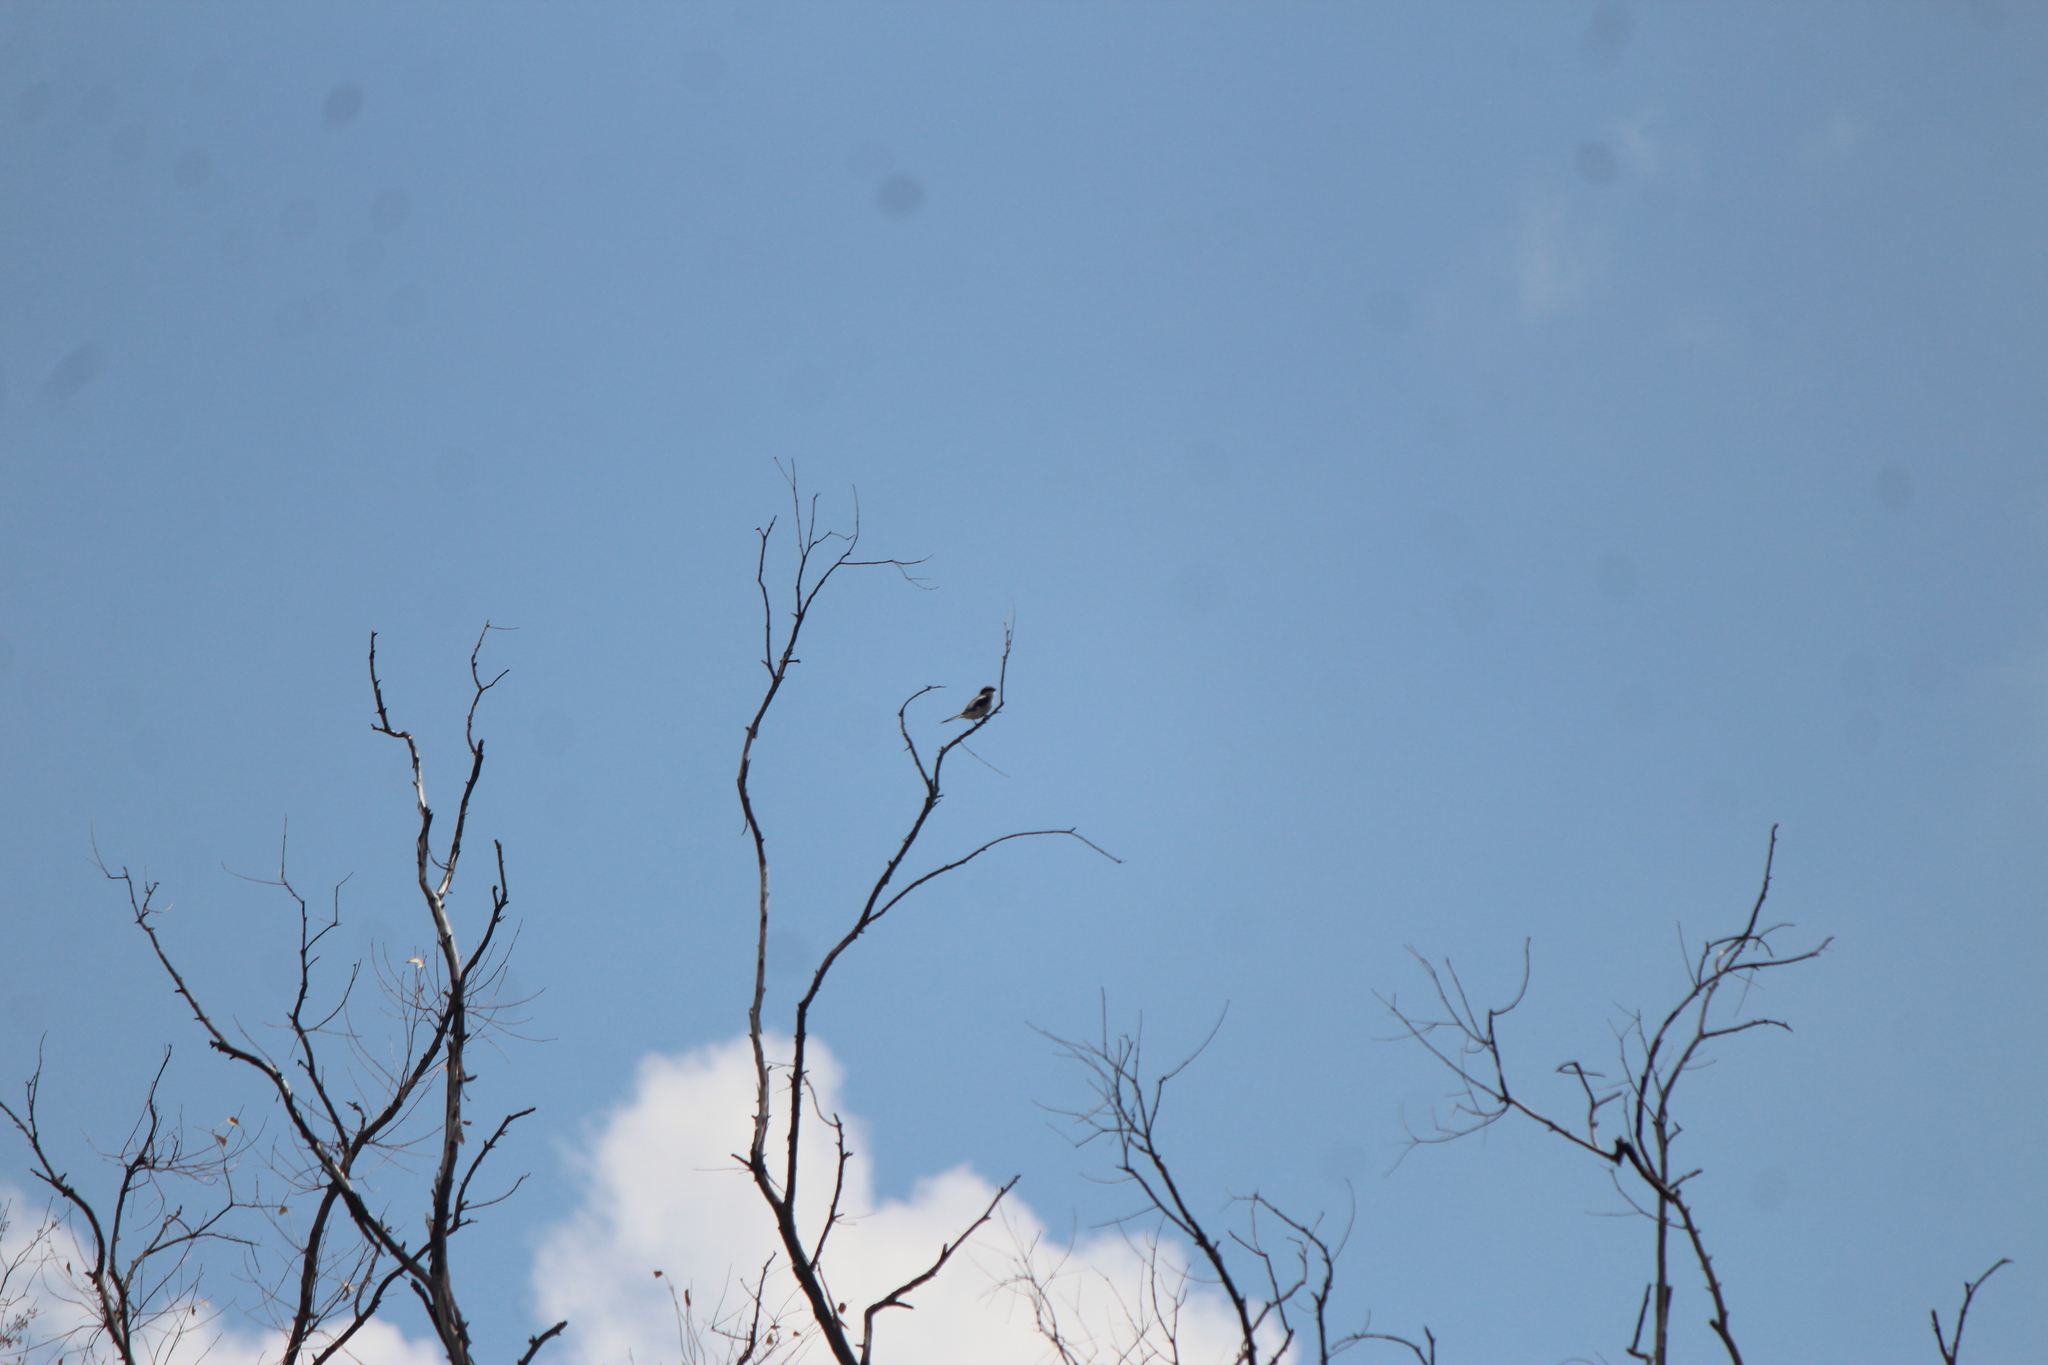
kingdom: Animalia
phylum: Chordata
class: Aves
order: Passeriformes
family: Laniidae
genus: Lanius
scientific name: Lanius ludovicianus
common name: Loggerhead shrike
